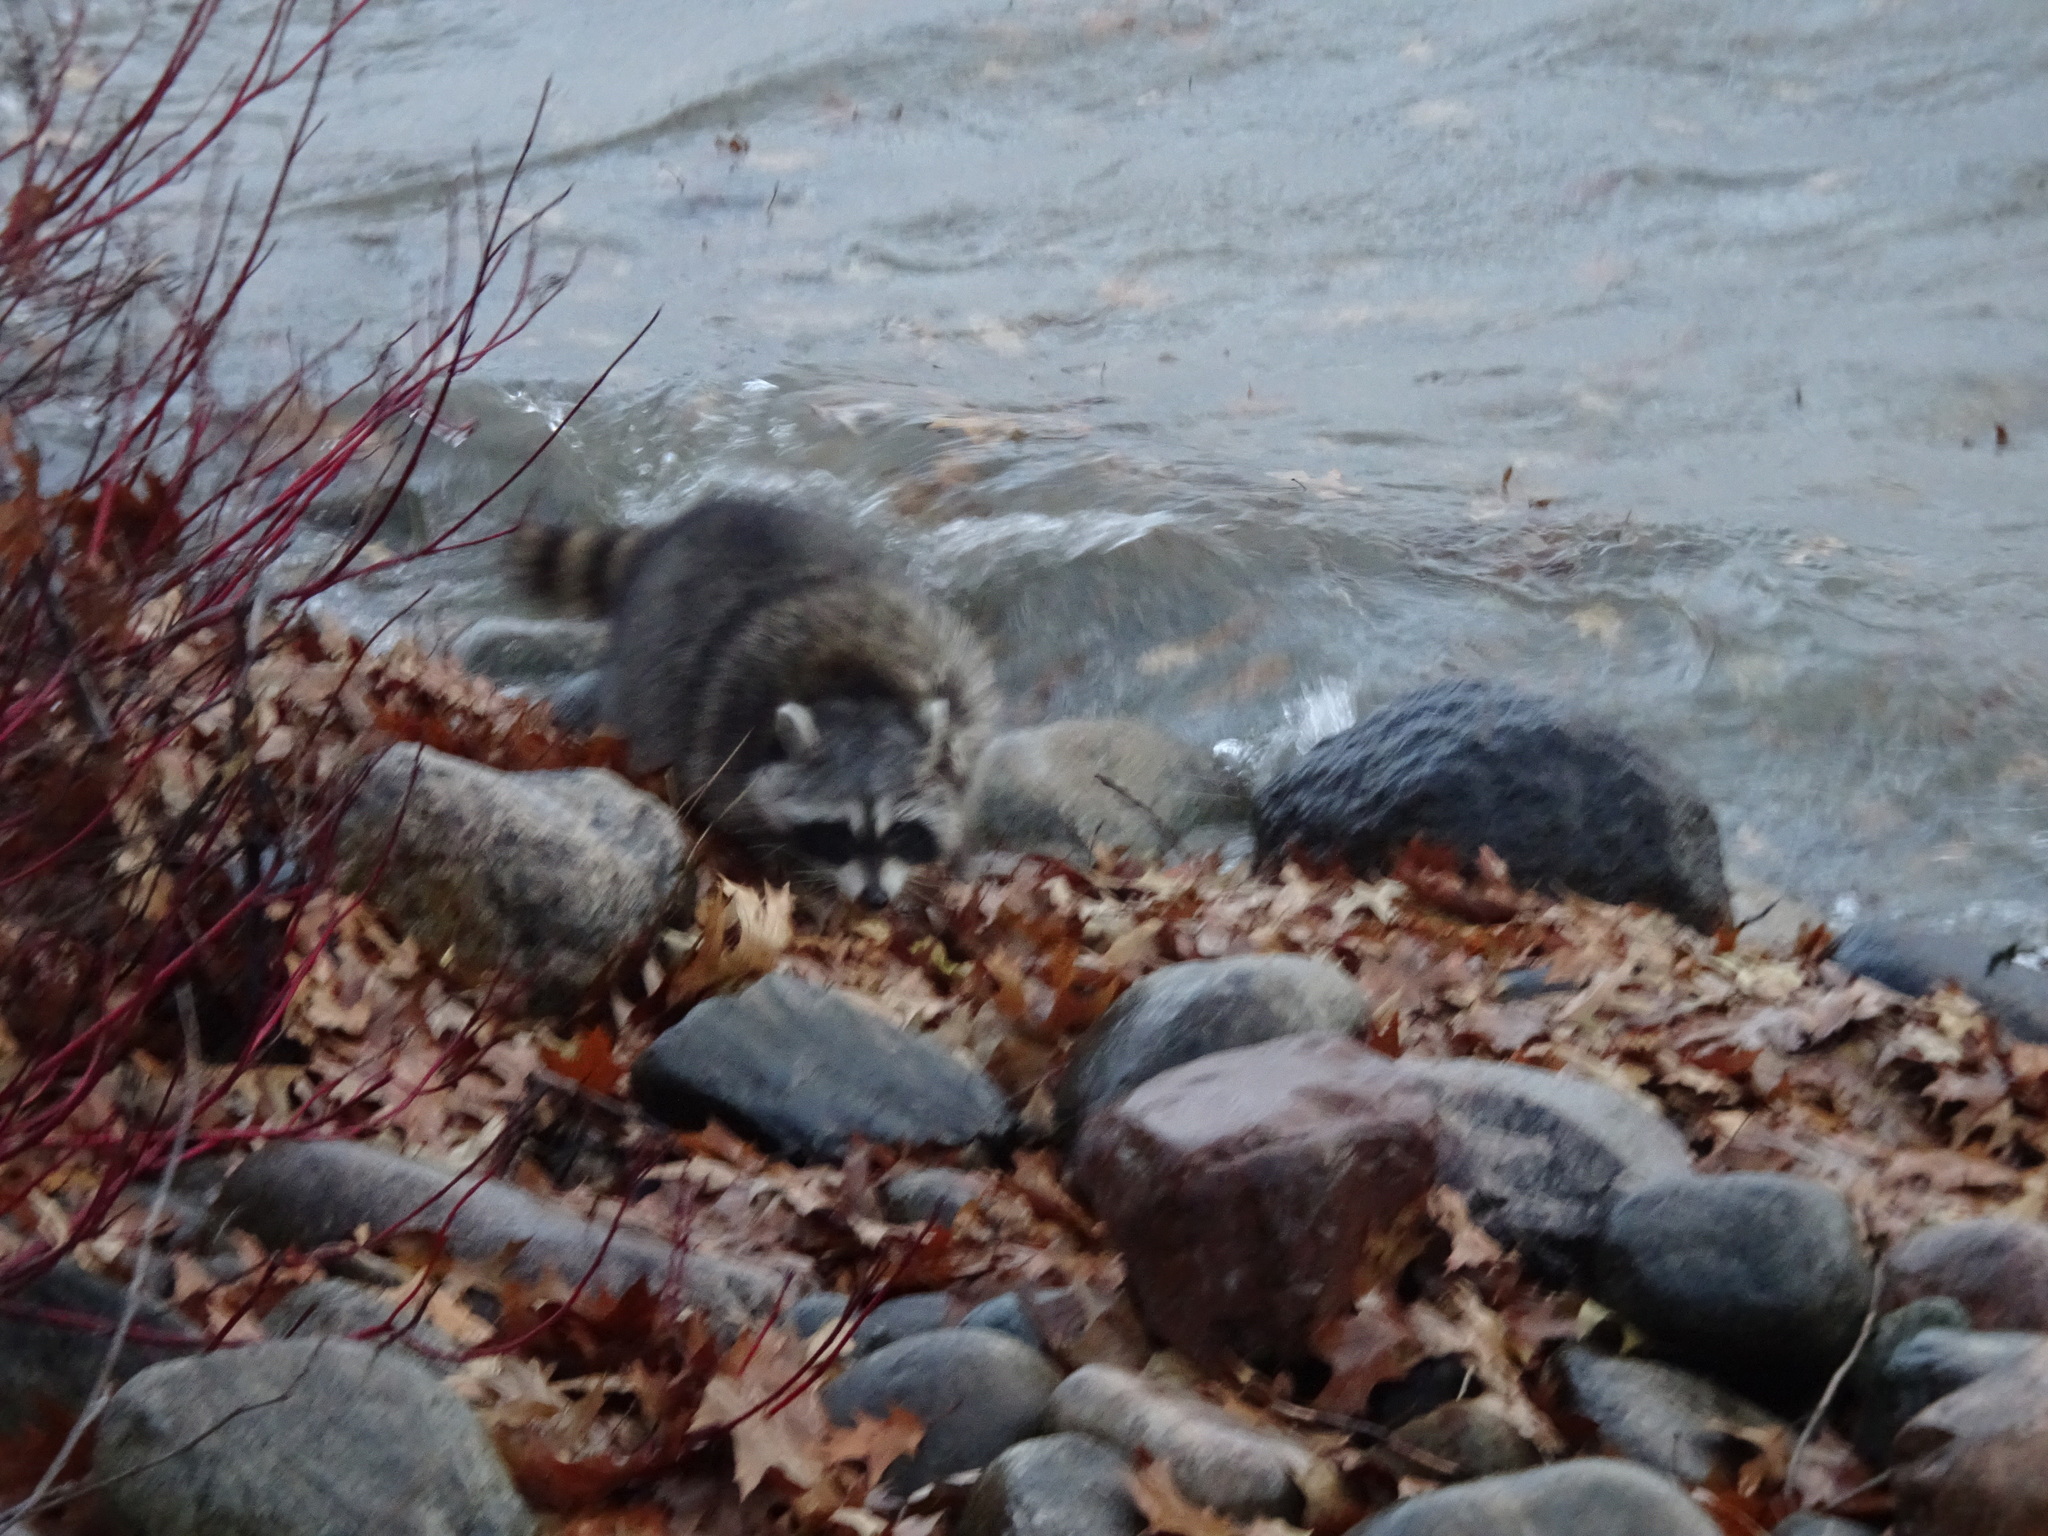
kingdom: Animalia
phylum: Chordata
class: Mammalia
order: Carnivora
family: Procyonidae
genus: Procyon
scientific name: Procyon lotor
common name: Raccoon
